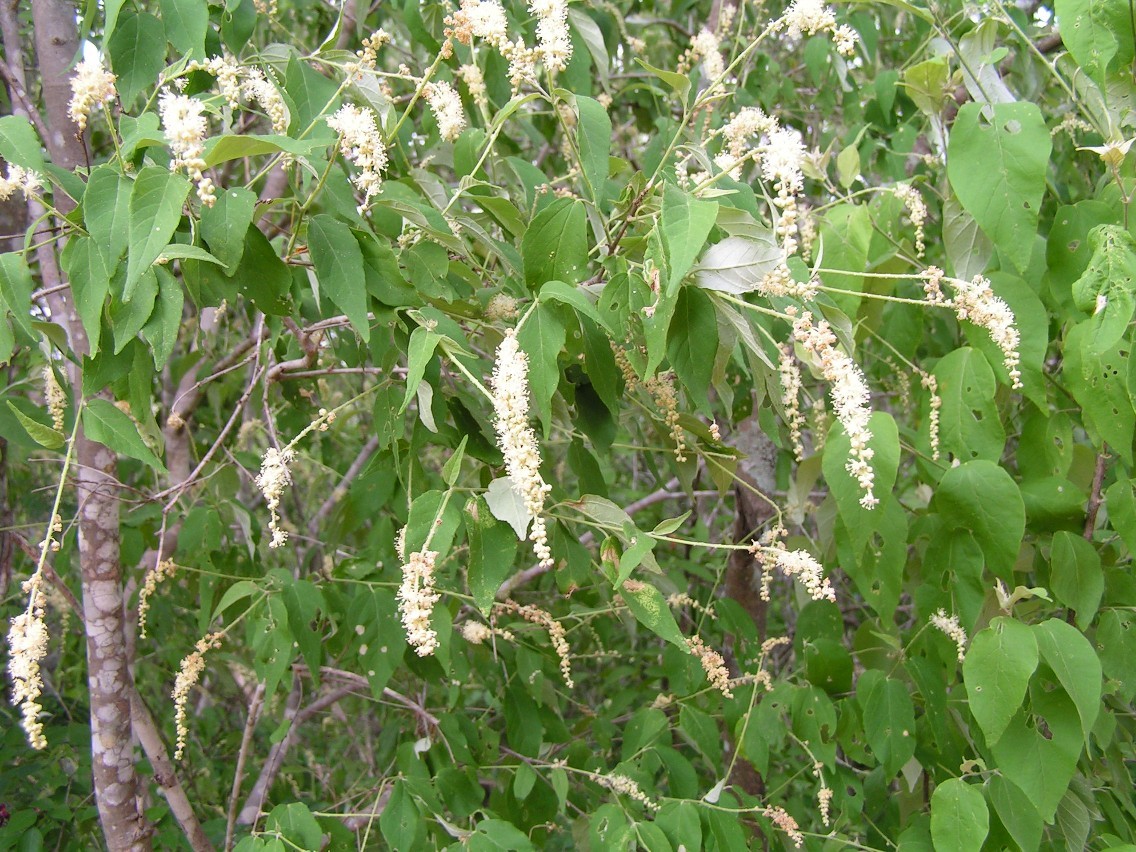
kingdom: Plantae
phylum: Tracheophyta
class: Magnoliopsida
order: Malpighiales
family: Euphorbiaceae
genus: Croton
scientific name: Croton sonorae
